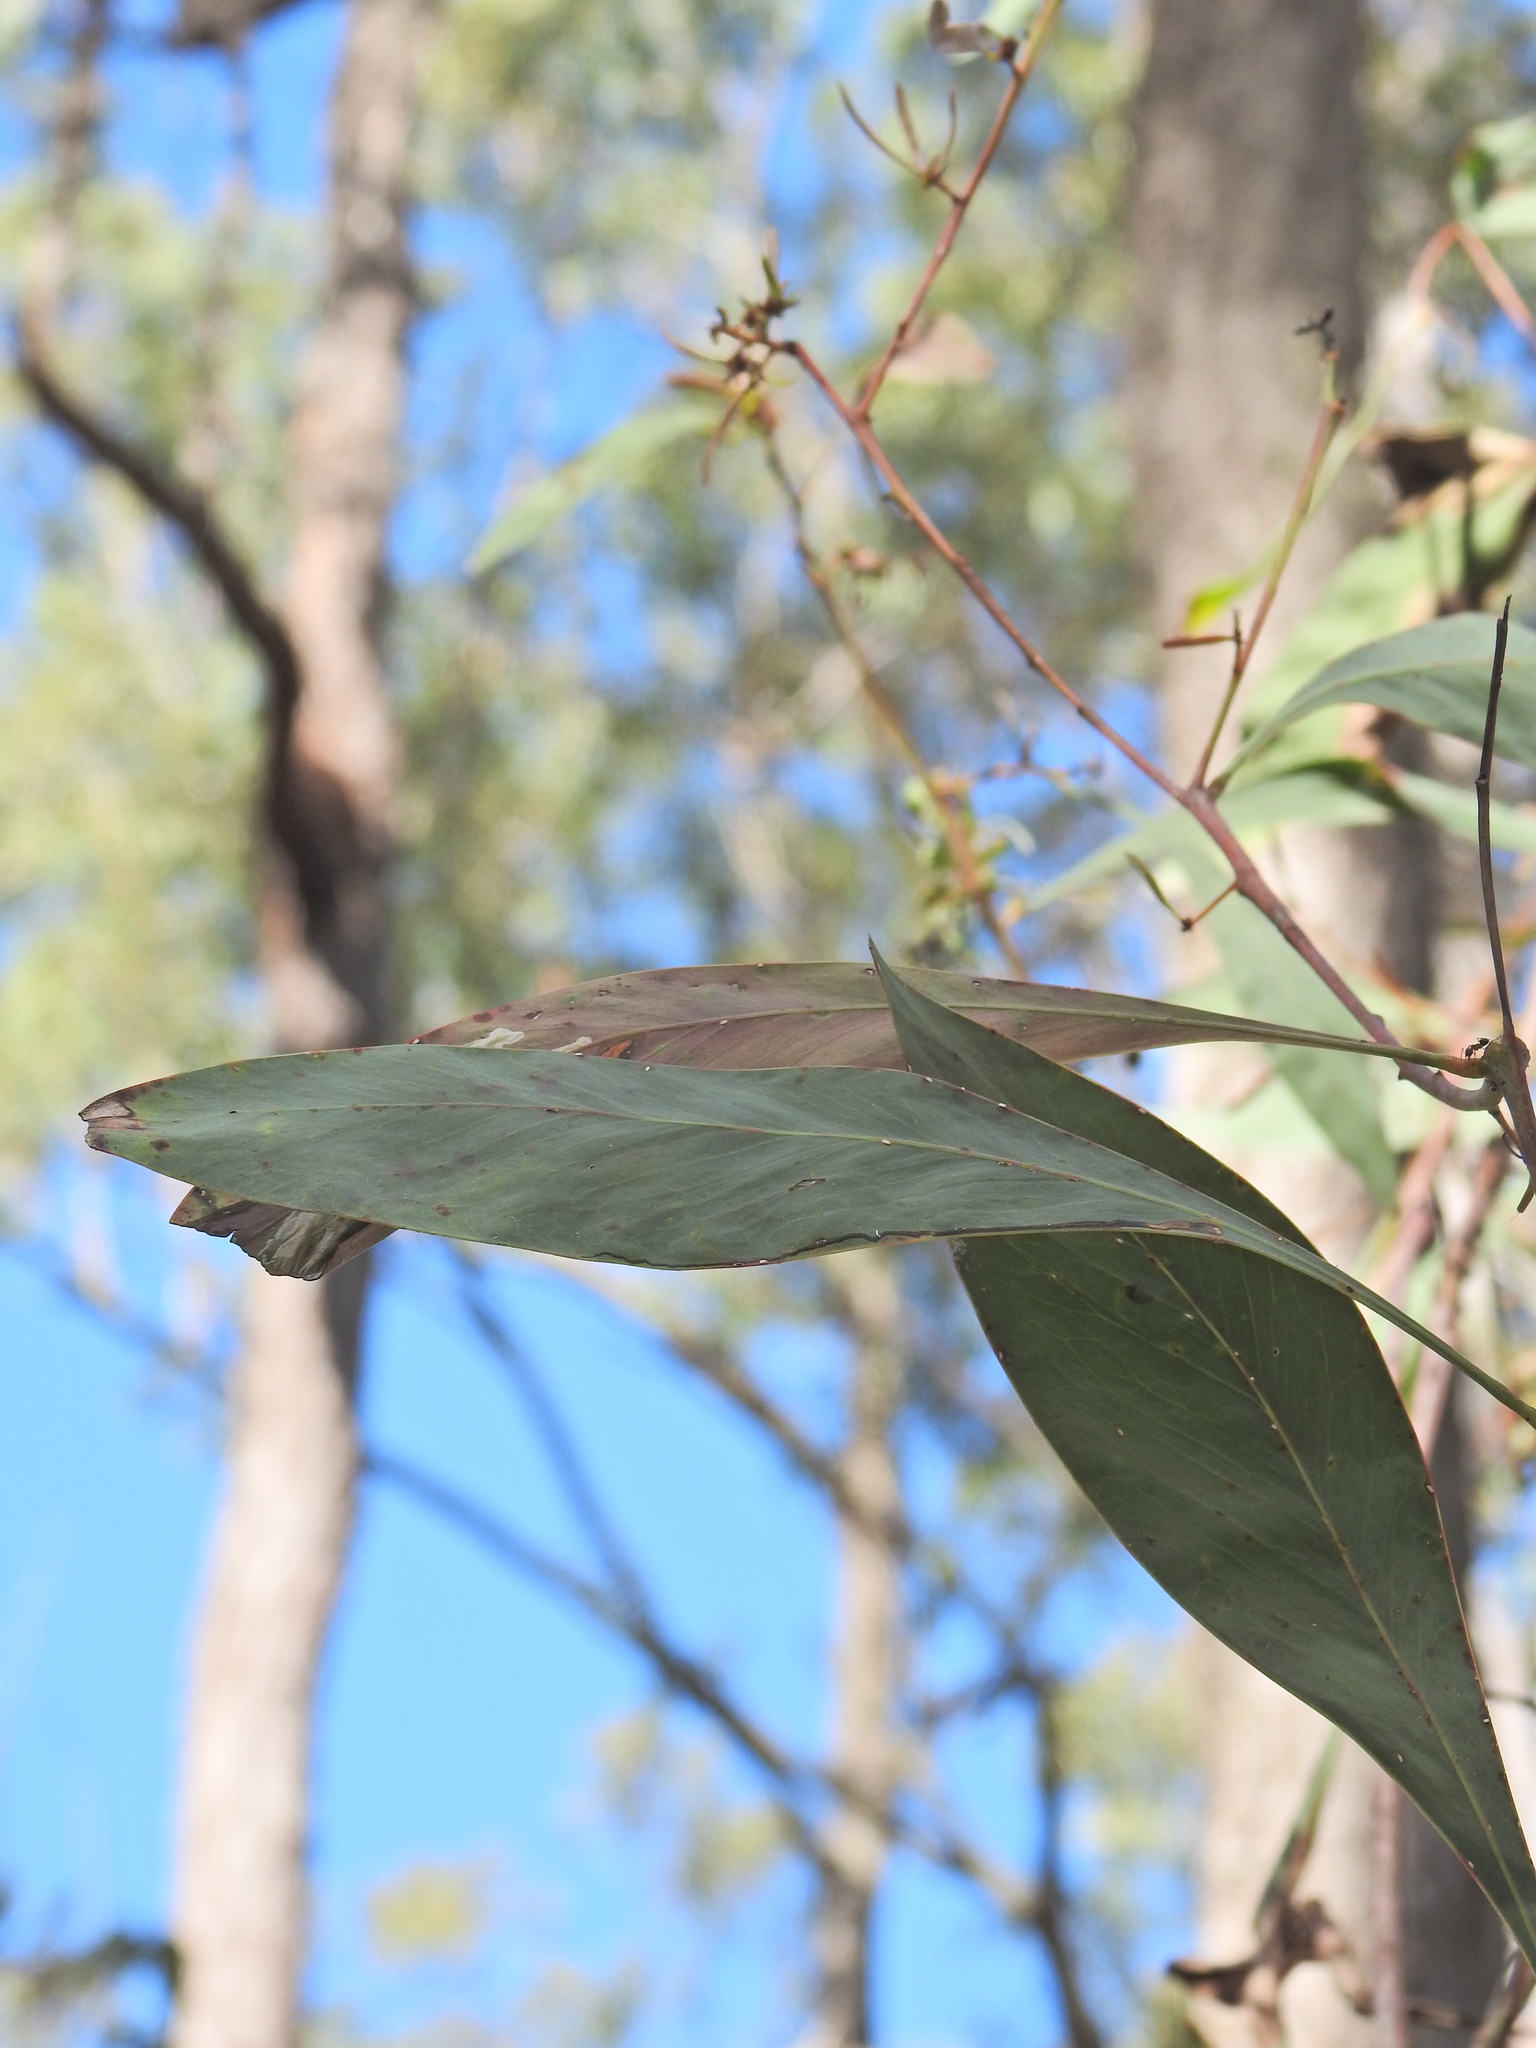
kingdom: Plantae
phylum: Tracheophyta
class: Magnoliopsida
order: Fabales
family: Fabaceae
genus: Acacia
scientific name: Acacia falcata
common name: Burra acacia
